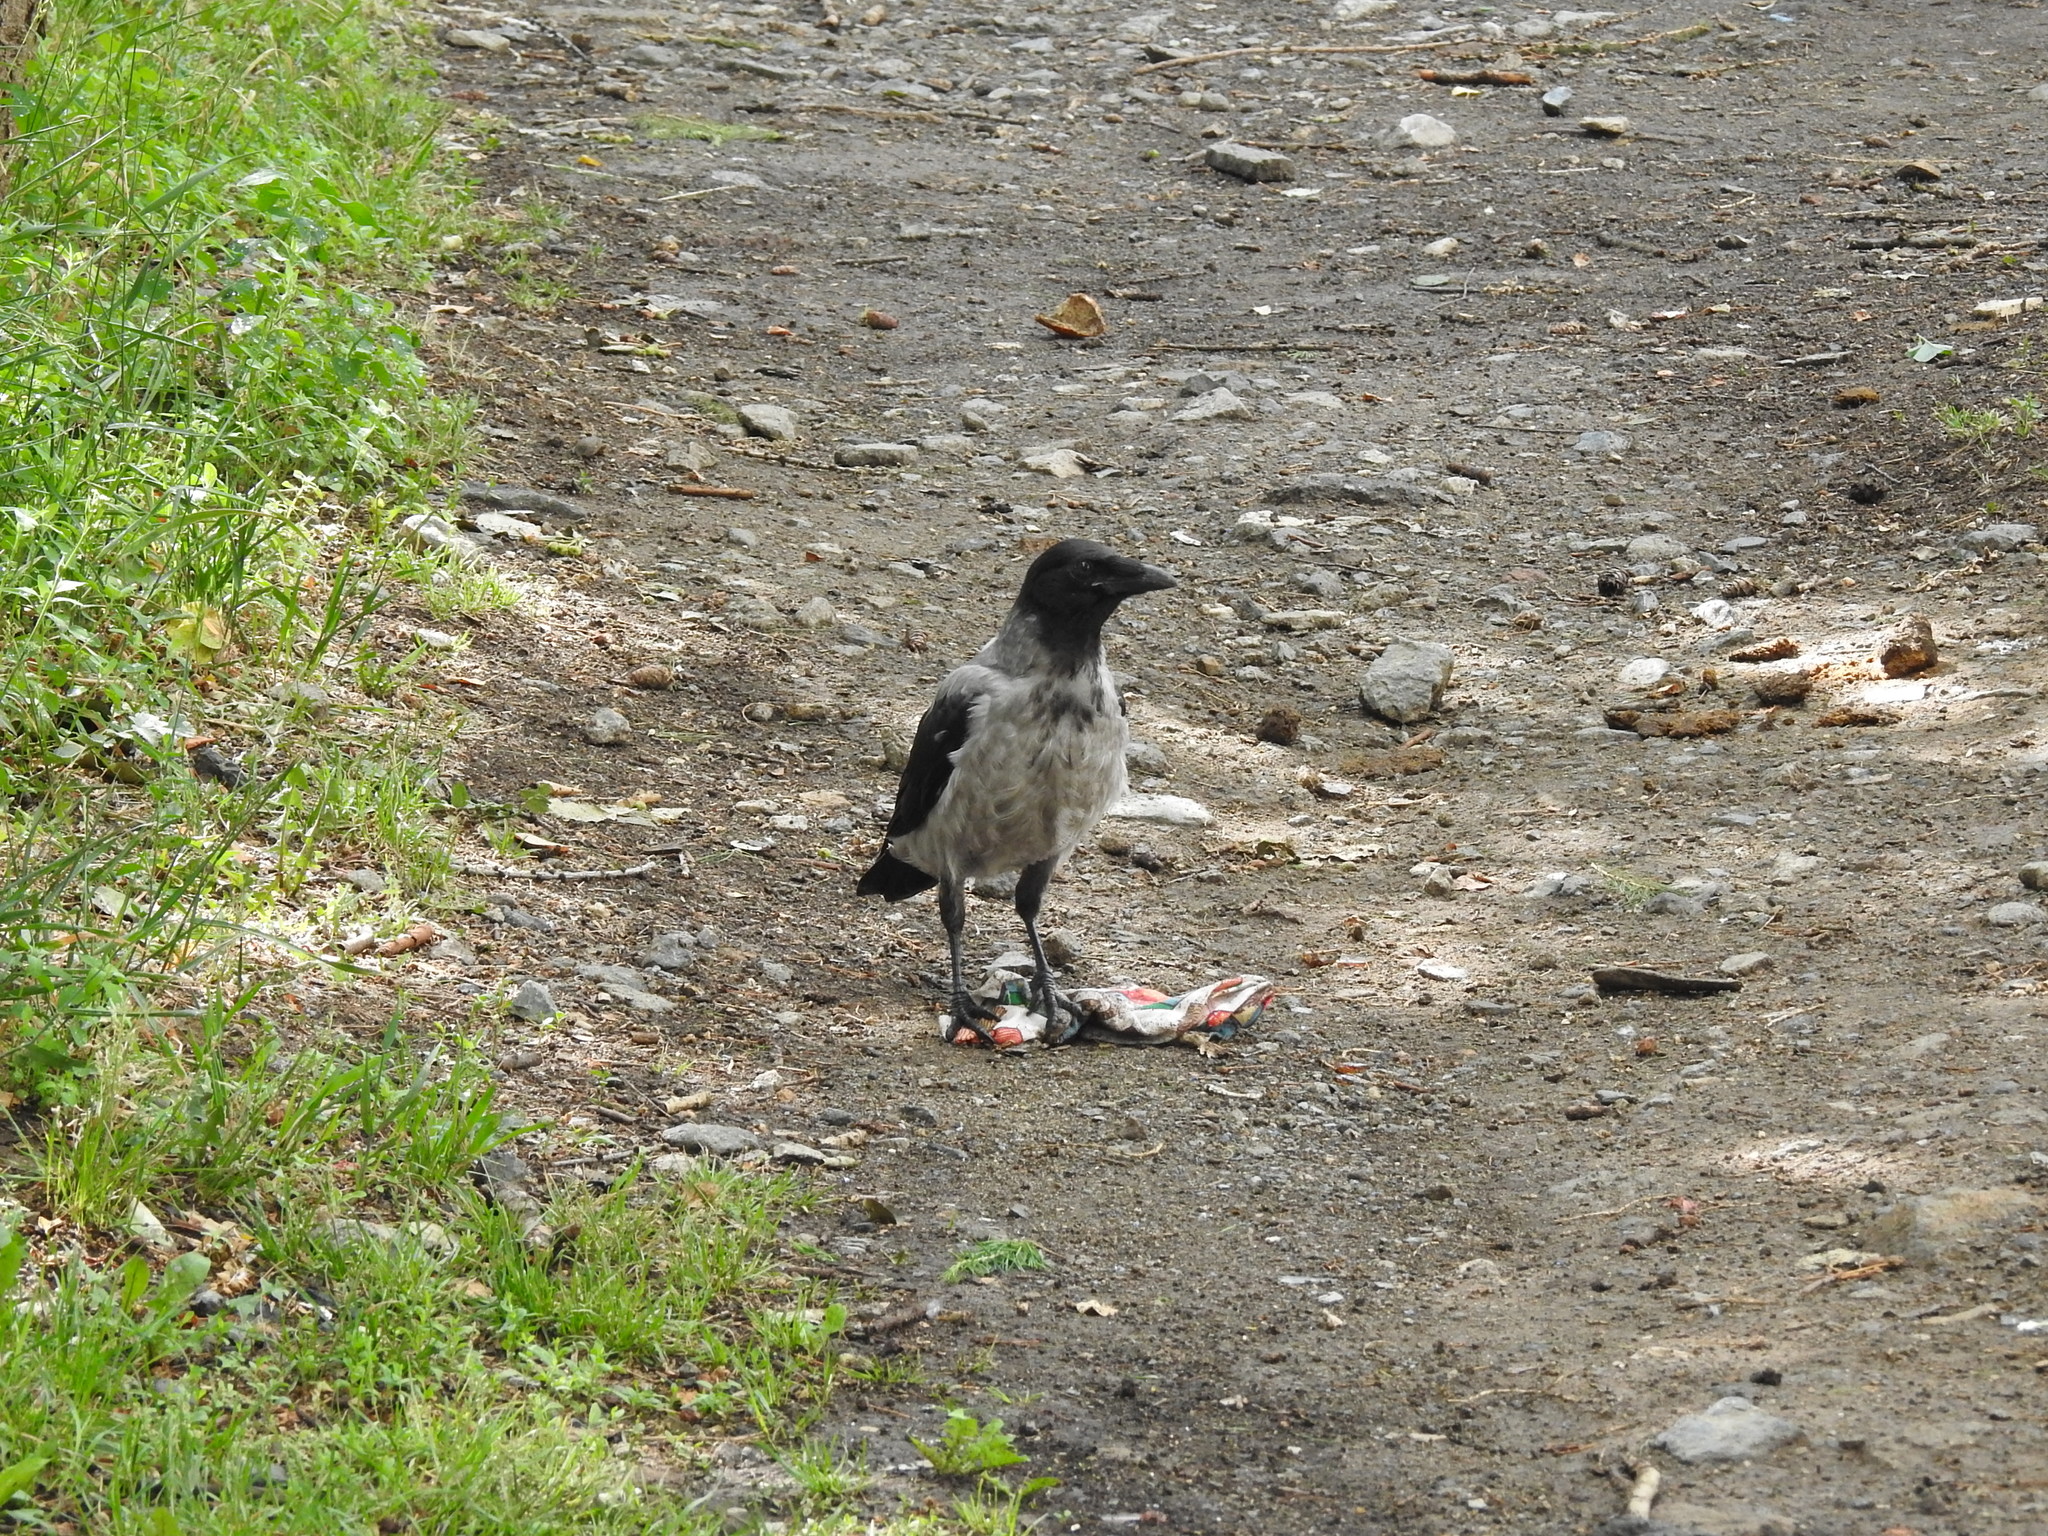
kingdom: Animalia
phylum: Chordata
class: Aves
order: Passeriformes
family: Corvidae
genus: Corvus
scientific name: Corvus cornix
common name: Hooded crow
